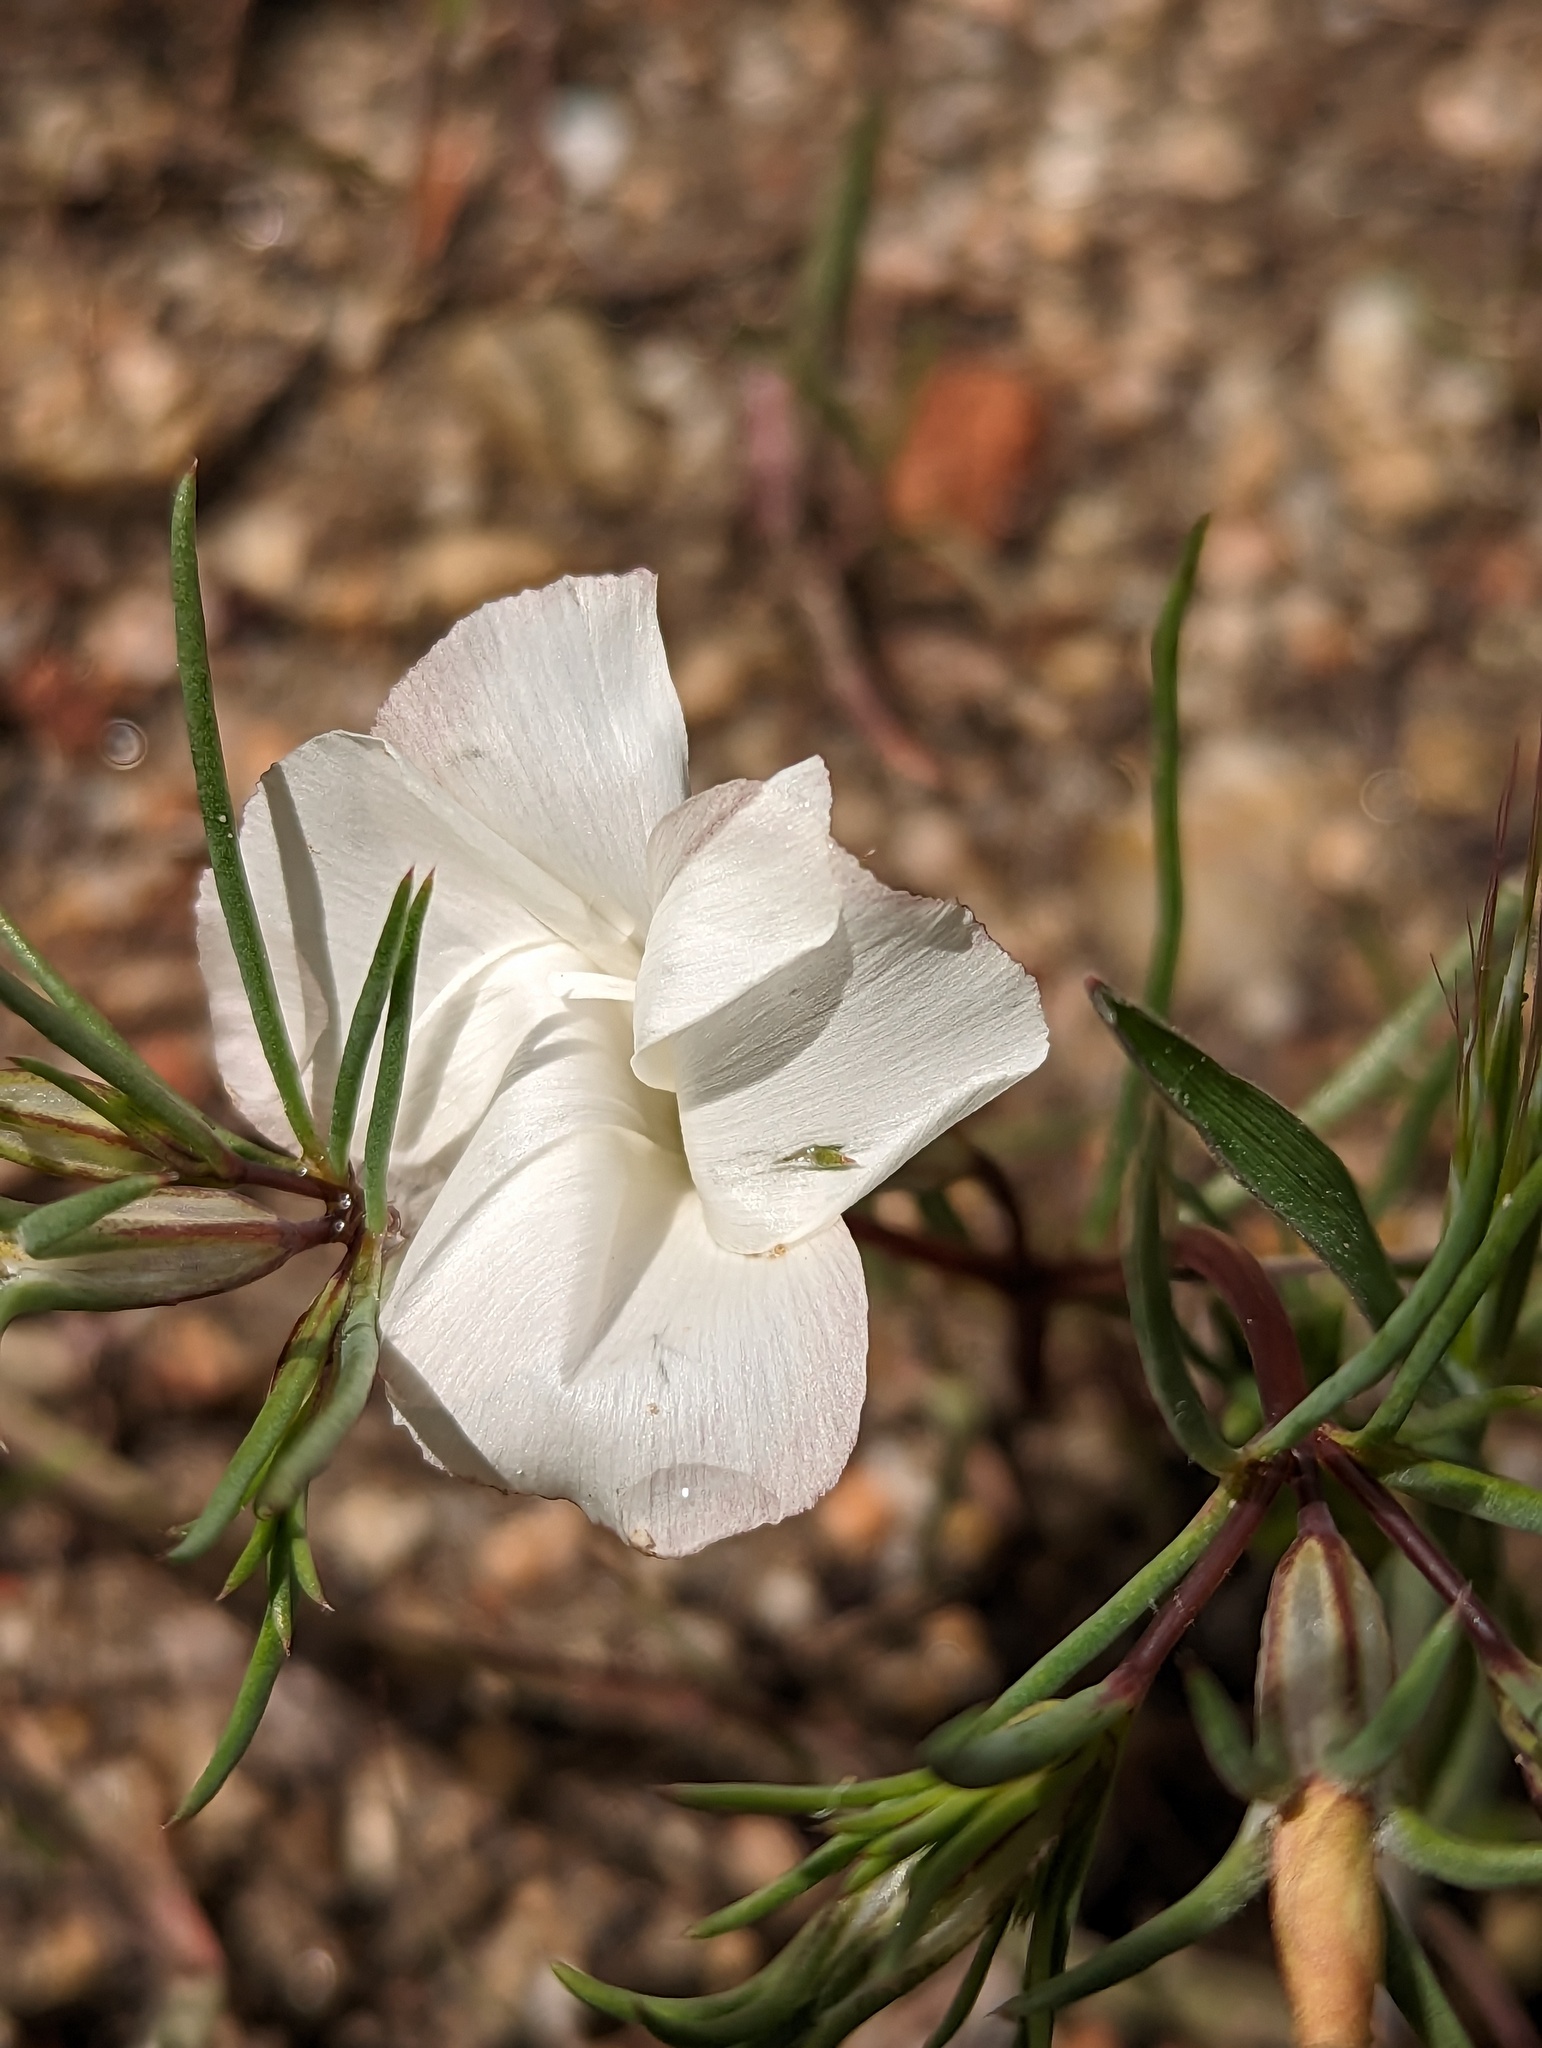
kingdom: Plantae
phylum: Tracheophyta
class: Magnoliopsida
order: Ericales
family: Polemoniaceae
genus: Linanthus
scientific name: Linanthus dichotomus
